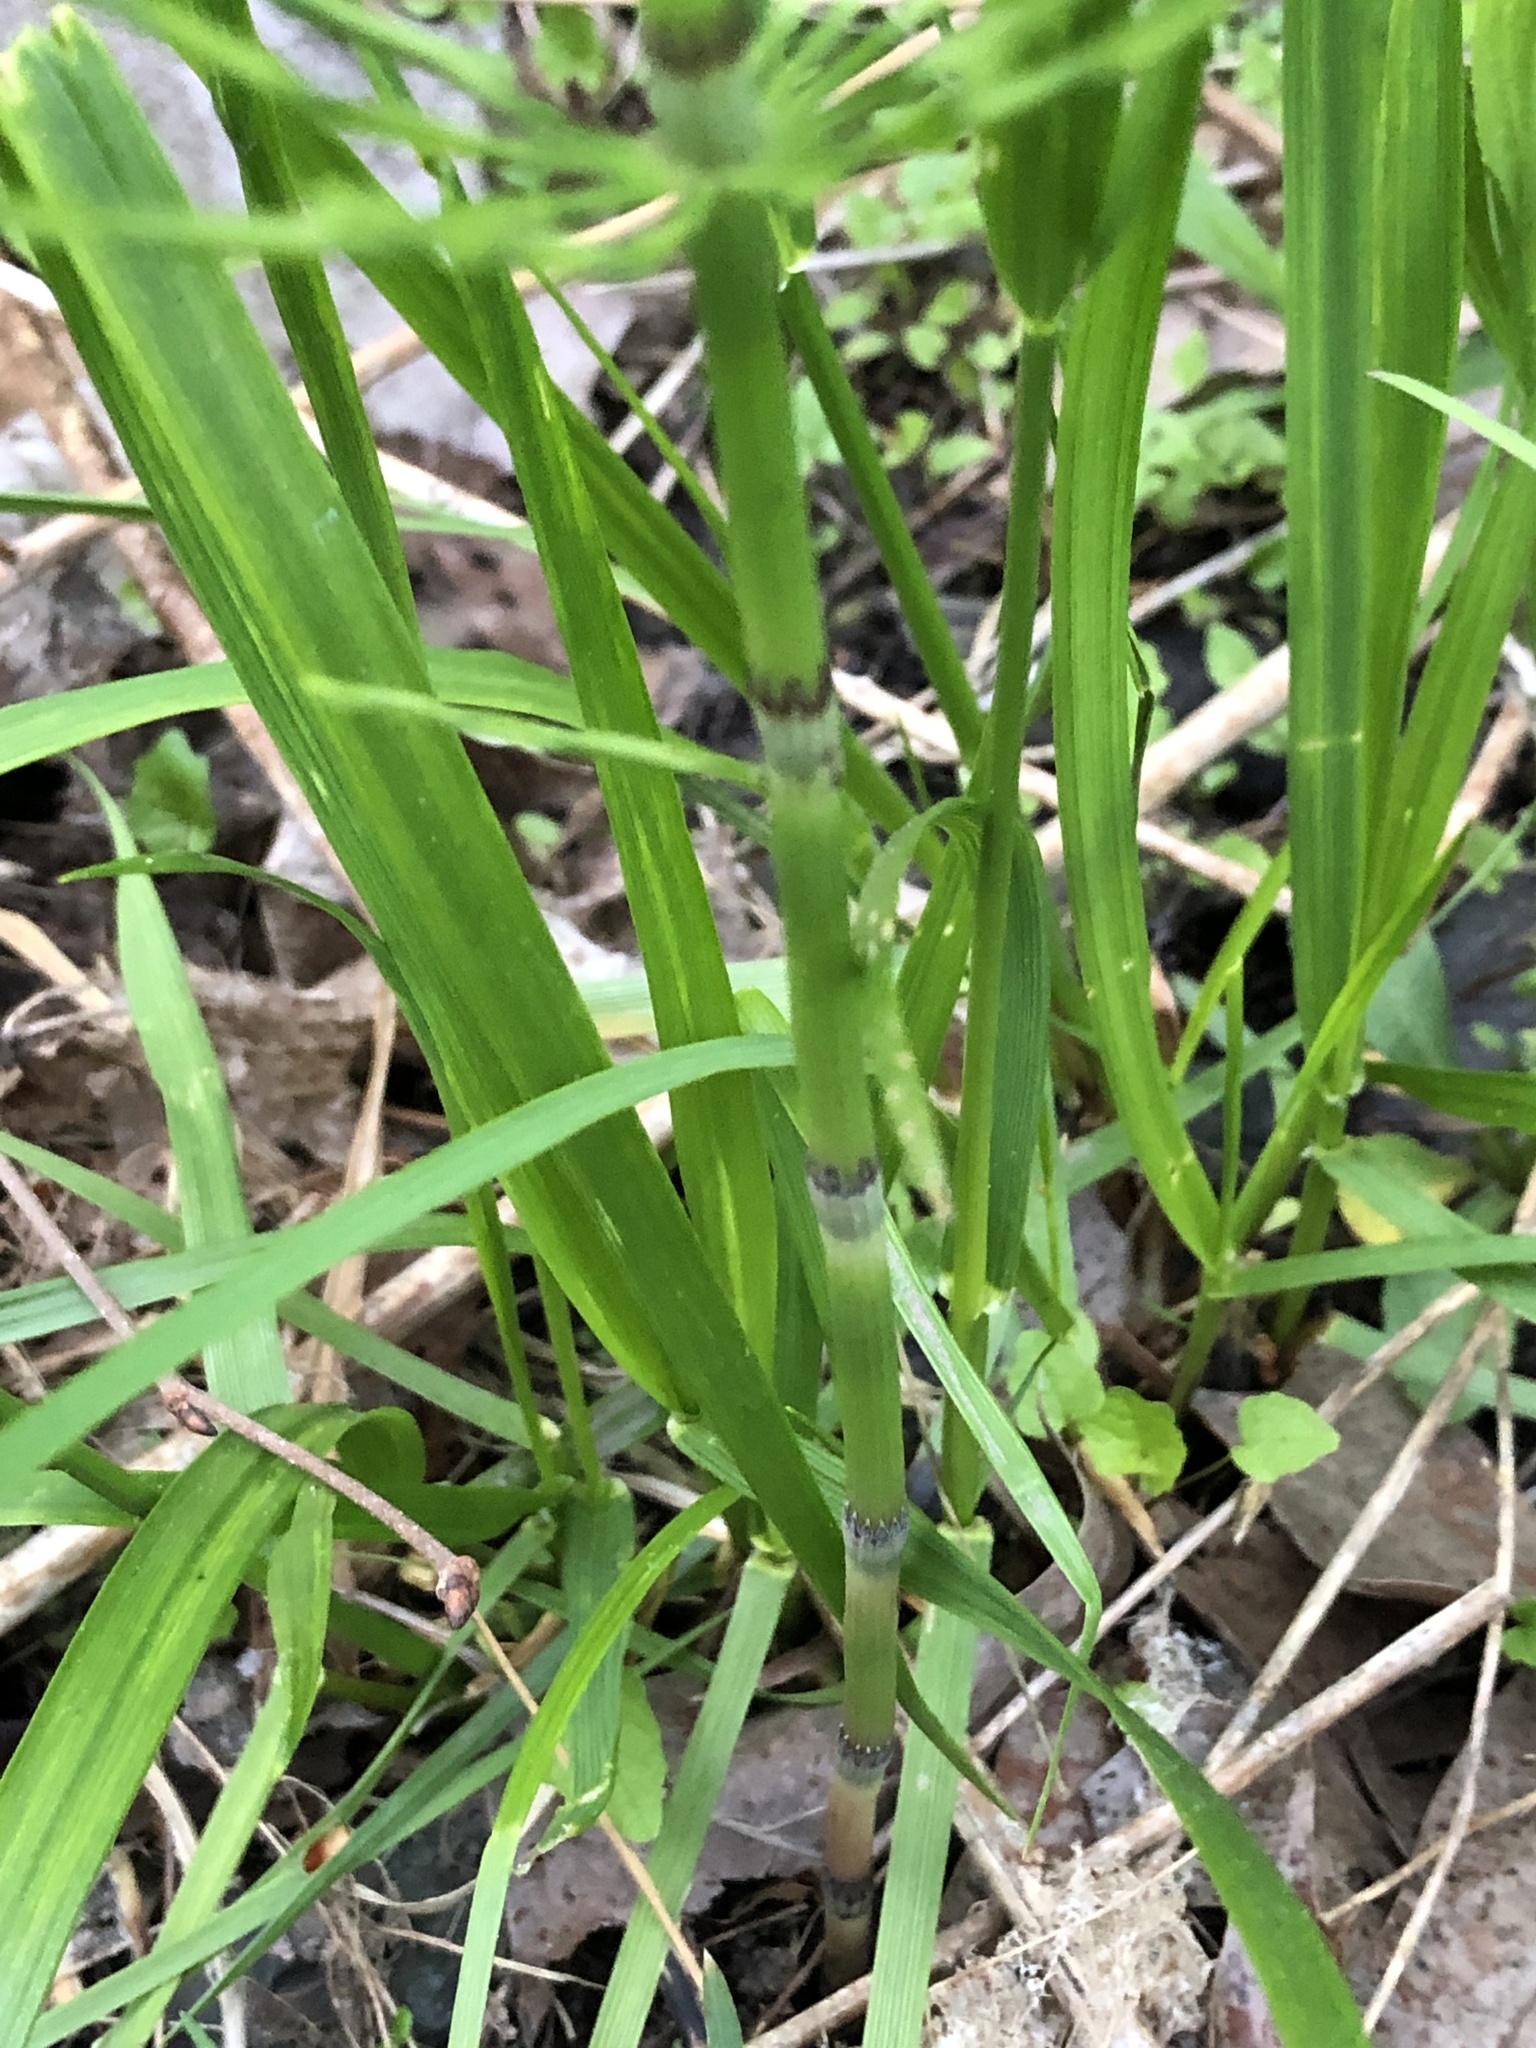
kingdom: Plantae
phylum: Tracheophyta
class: Polypodiopsida
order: Equisetales
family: Equisetaceae
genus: Equisetum
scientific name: Equisetum arvense
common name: Field horsetail
